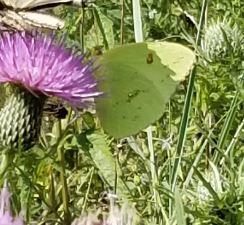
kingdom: Animalia
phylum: Arthropoda
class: Insecta
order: Lepidoptera
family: Pieridae
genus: Phoebis
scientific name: Phoebis sennae
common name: Cloudless sulphur
